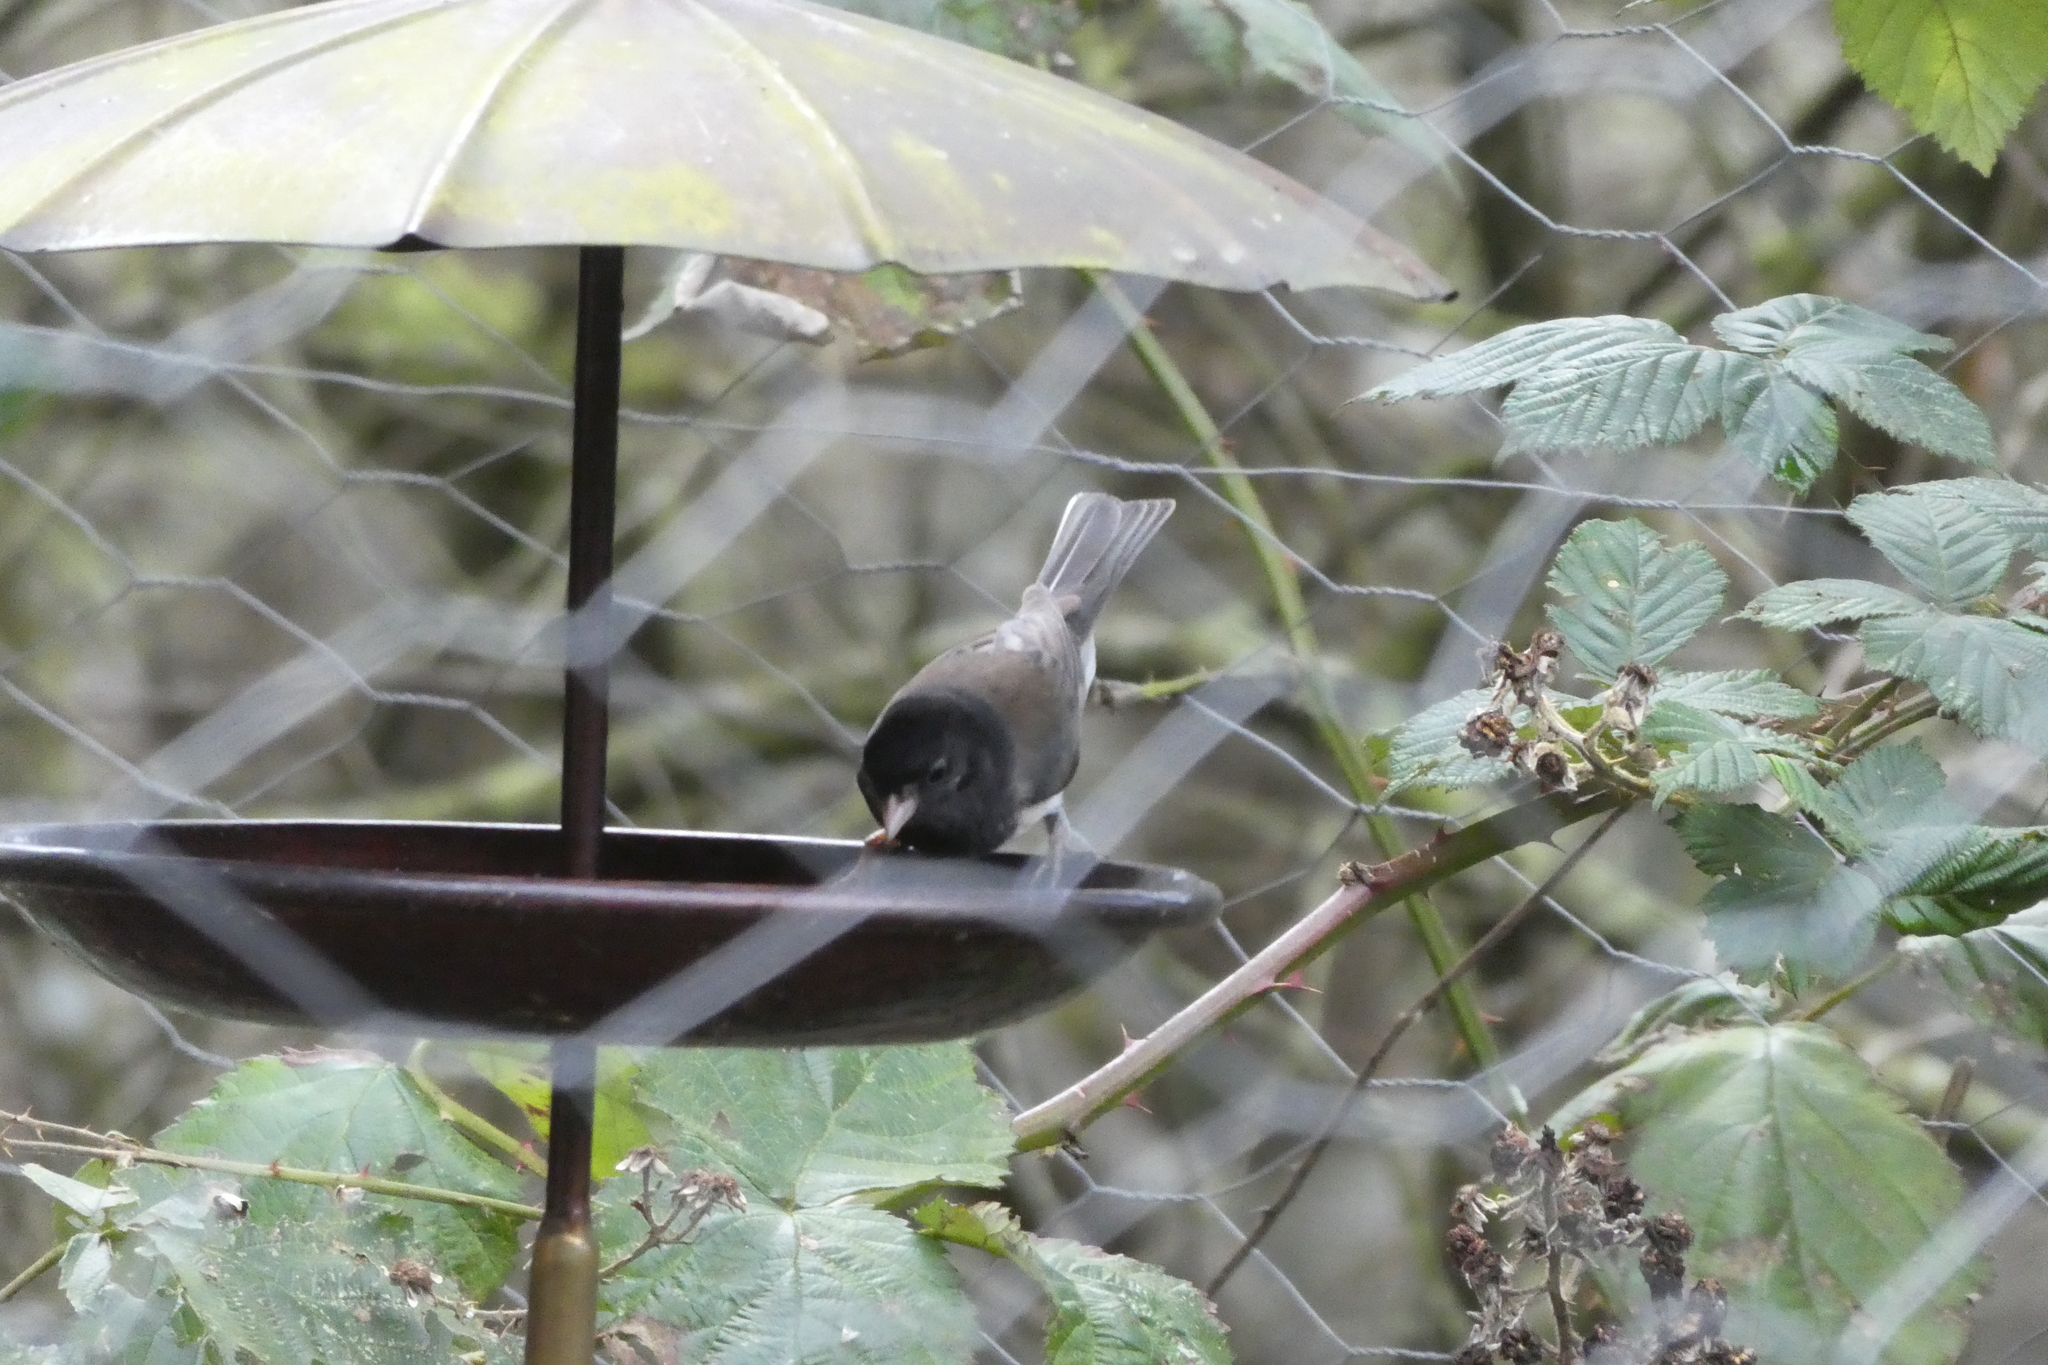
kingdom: Animalia
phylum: Chordata
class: Aves
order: Passeriformes
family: Passerellidae
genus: Junco
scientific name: Junco hyemalis
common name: Dark-eyed junco
